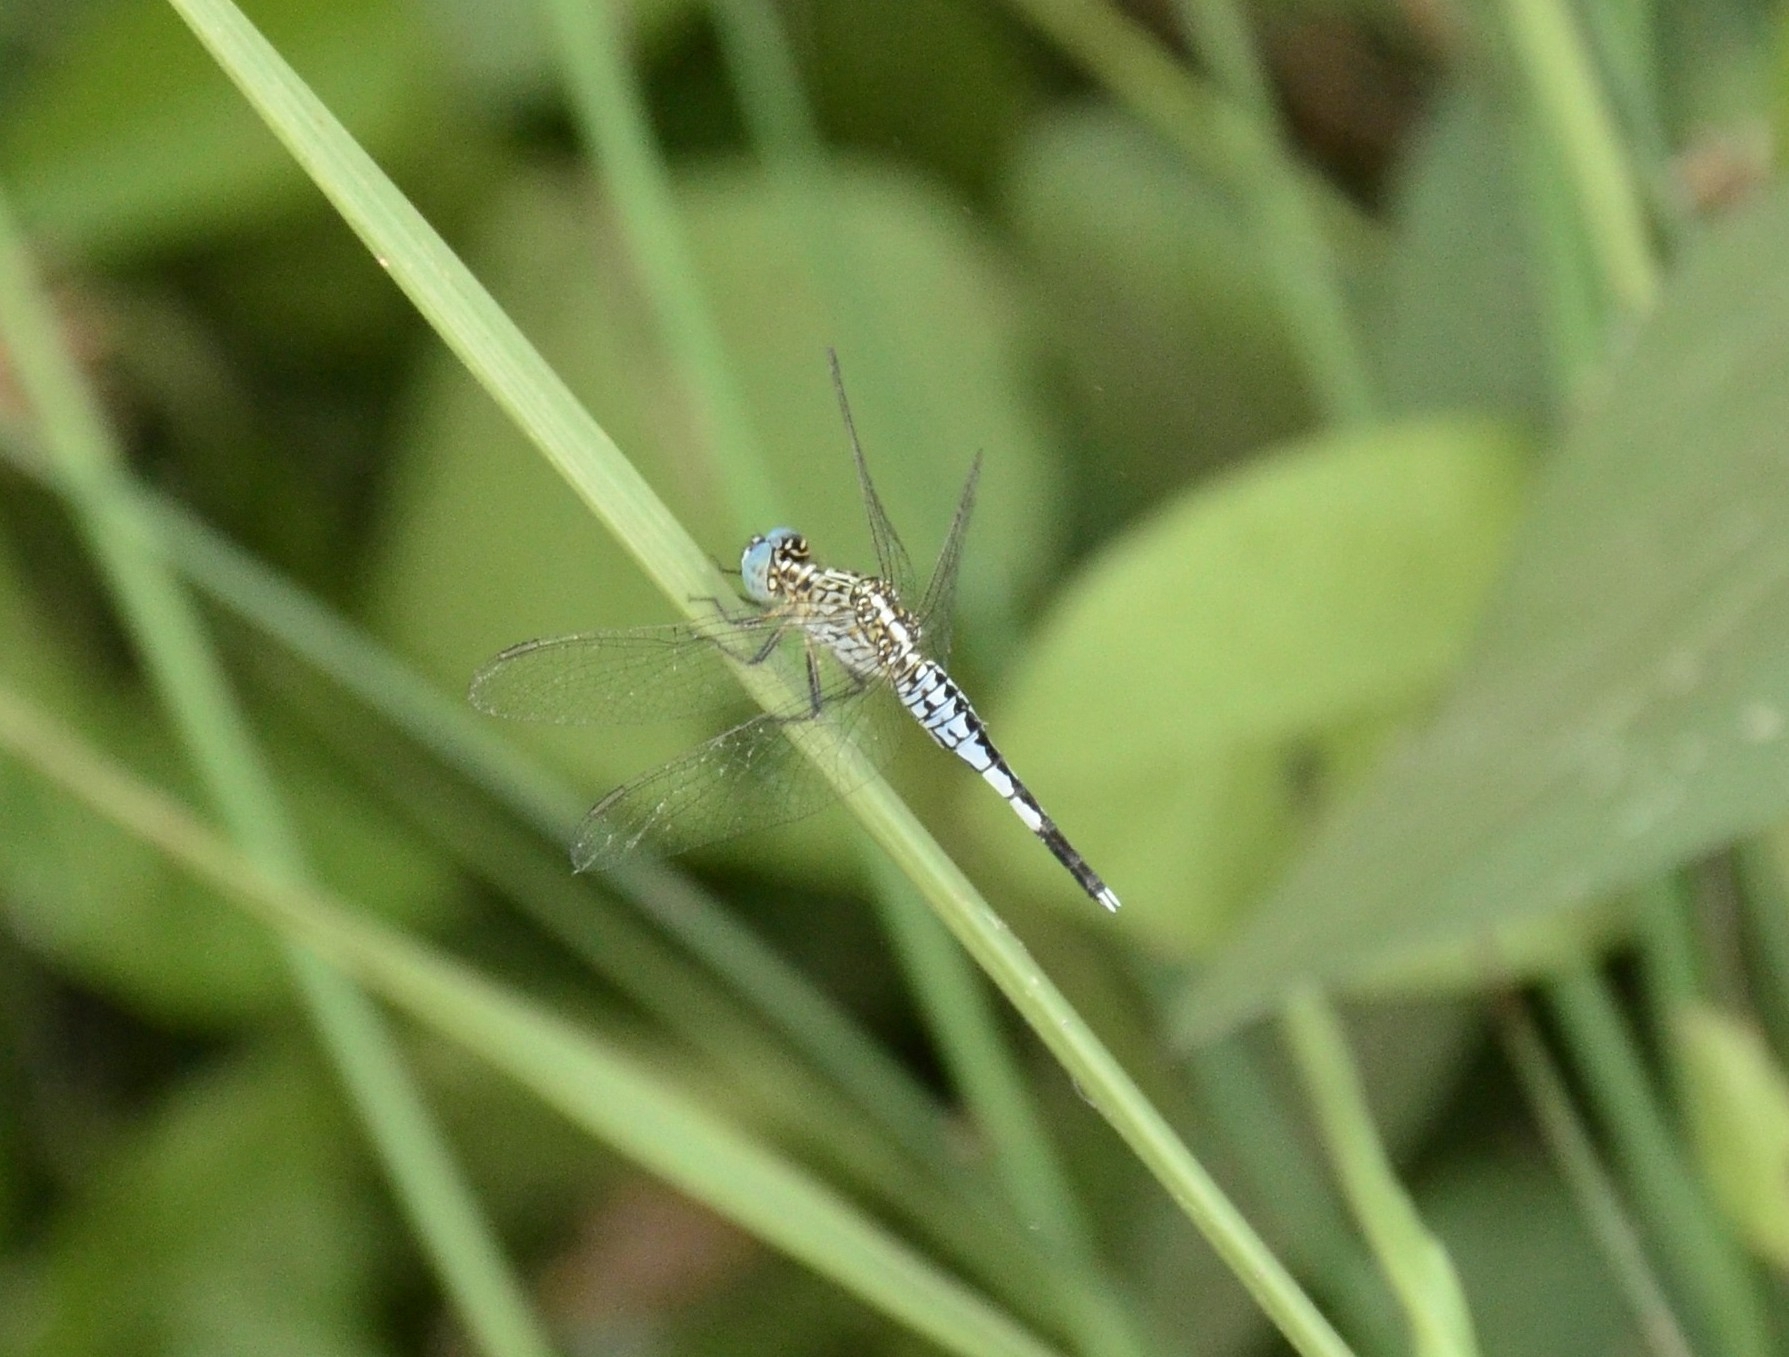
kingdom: Animalia
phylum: Arthropoda
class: Insecta
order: Odonata
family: Libellulidae
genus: Acisoma
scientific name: Acisoma panorpoides
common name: Asian pintail
